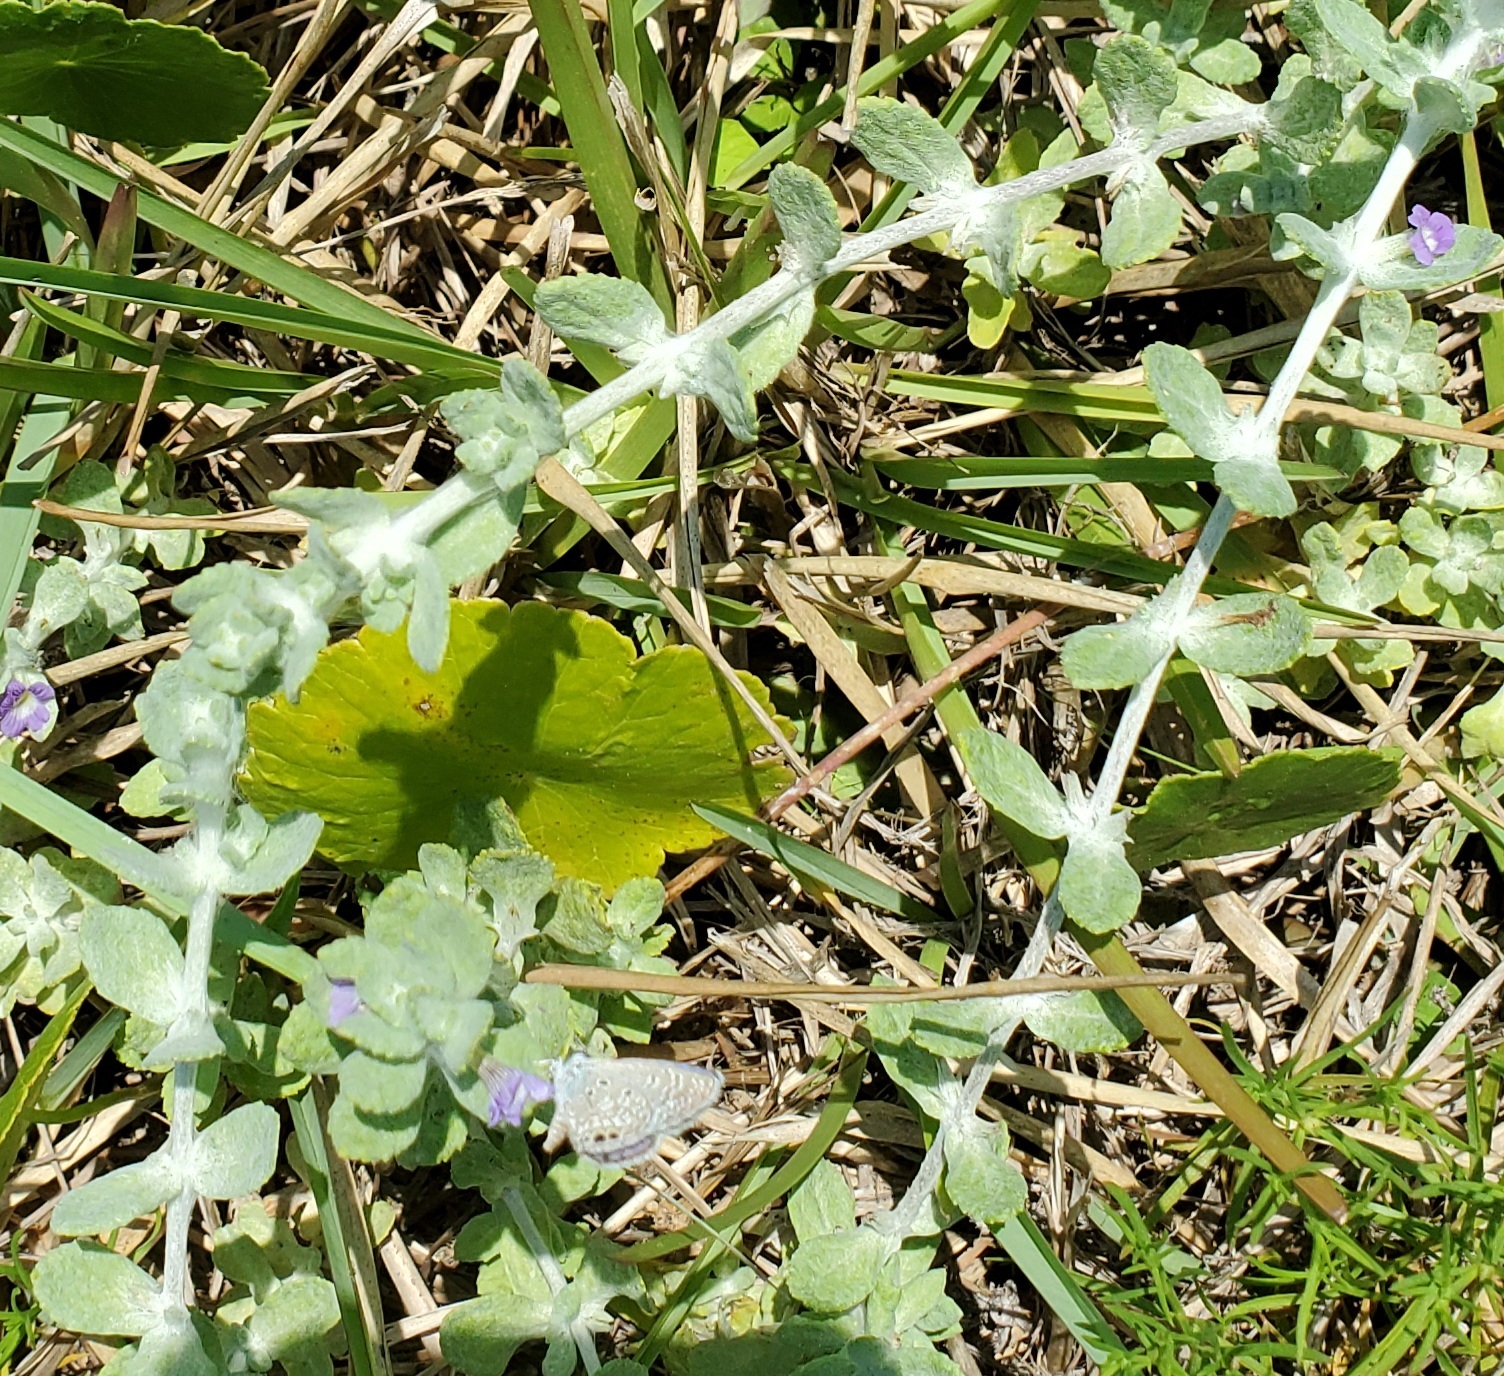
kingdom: Plantae
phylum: Tracheophyta
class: Magnoliopsida
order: Lamiales
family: Plantaginaceae
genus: Stemodia
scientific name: Stemodia lanata
